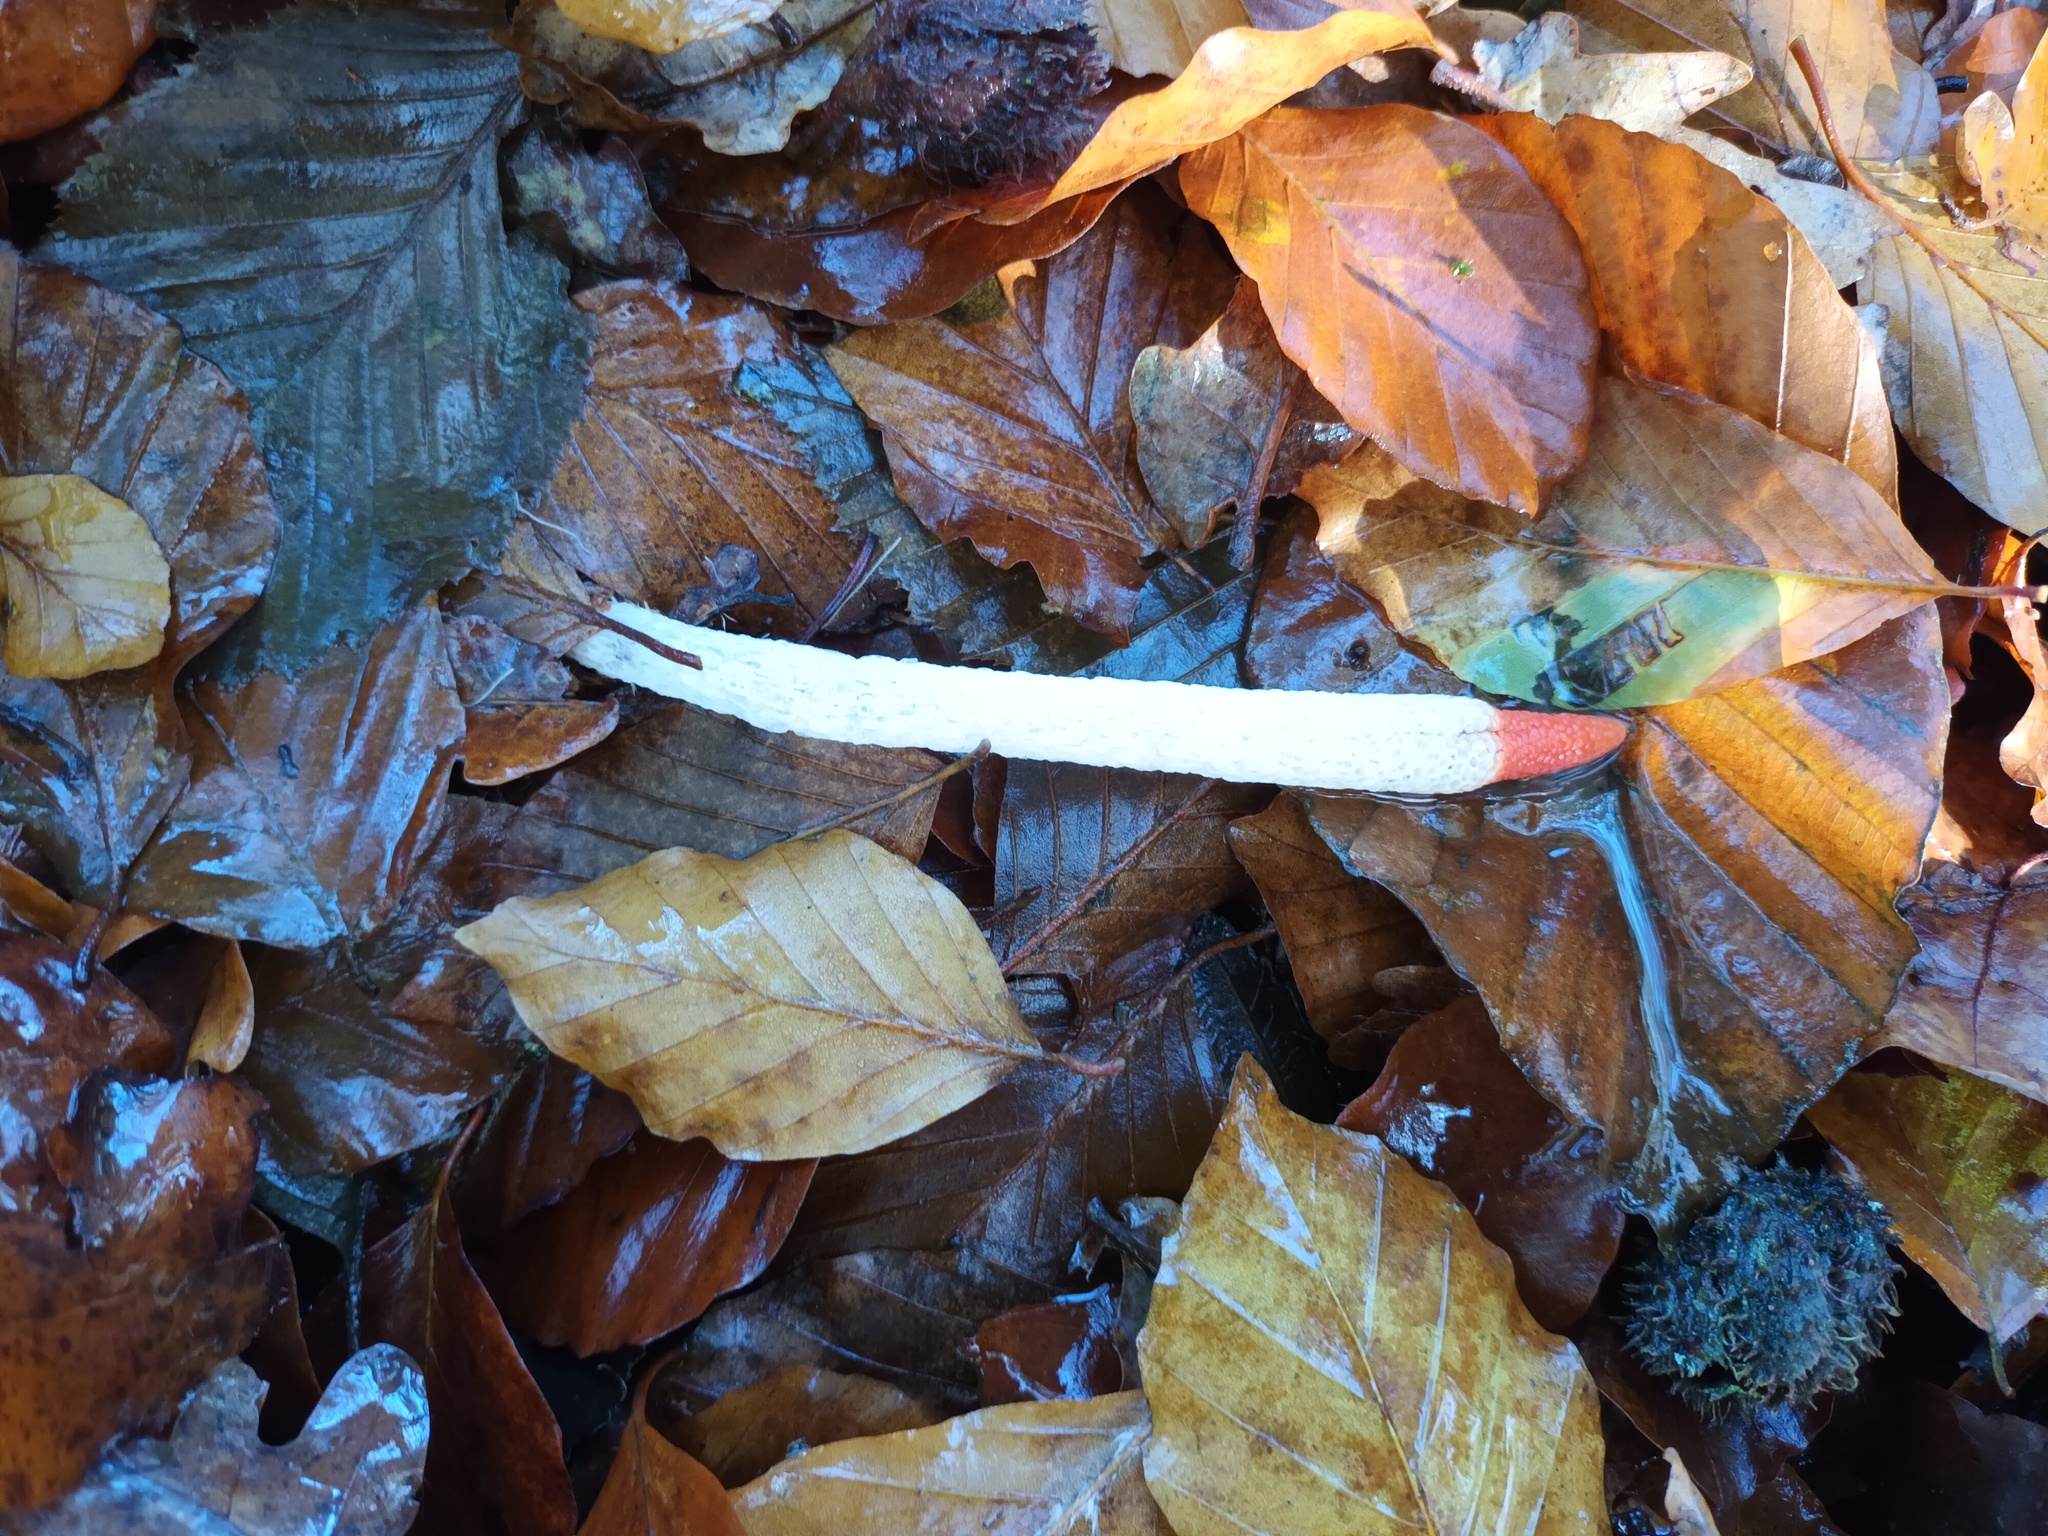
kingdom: Fungi
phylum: Basidiomycota
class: Agaricomycetes
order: Phallales
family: Phallaceae
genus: Mutinus
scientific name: Mutinus caninus
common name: Dog stinkhorn
